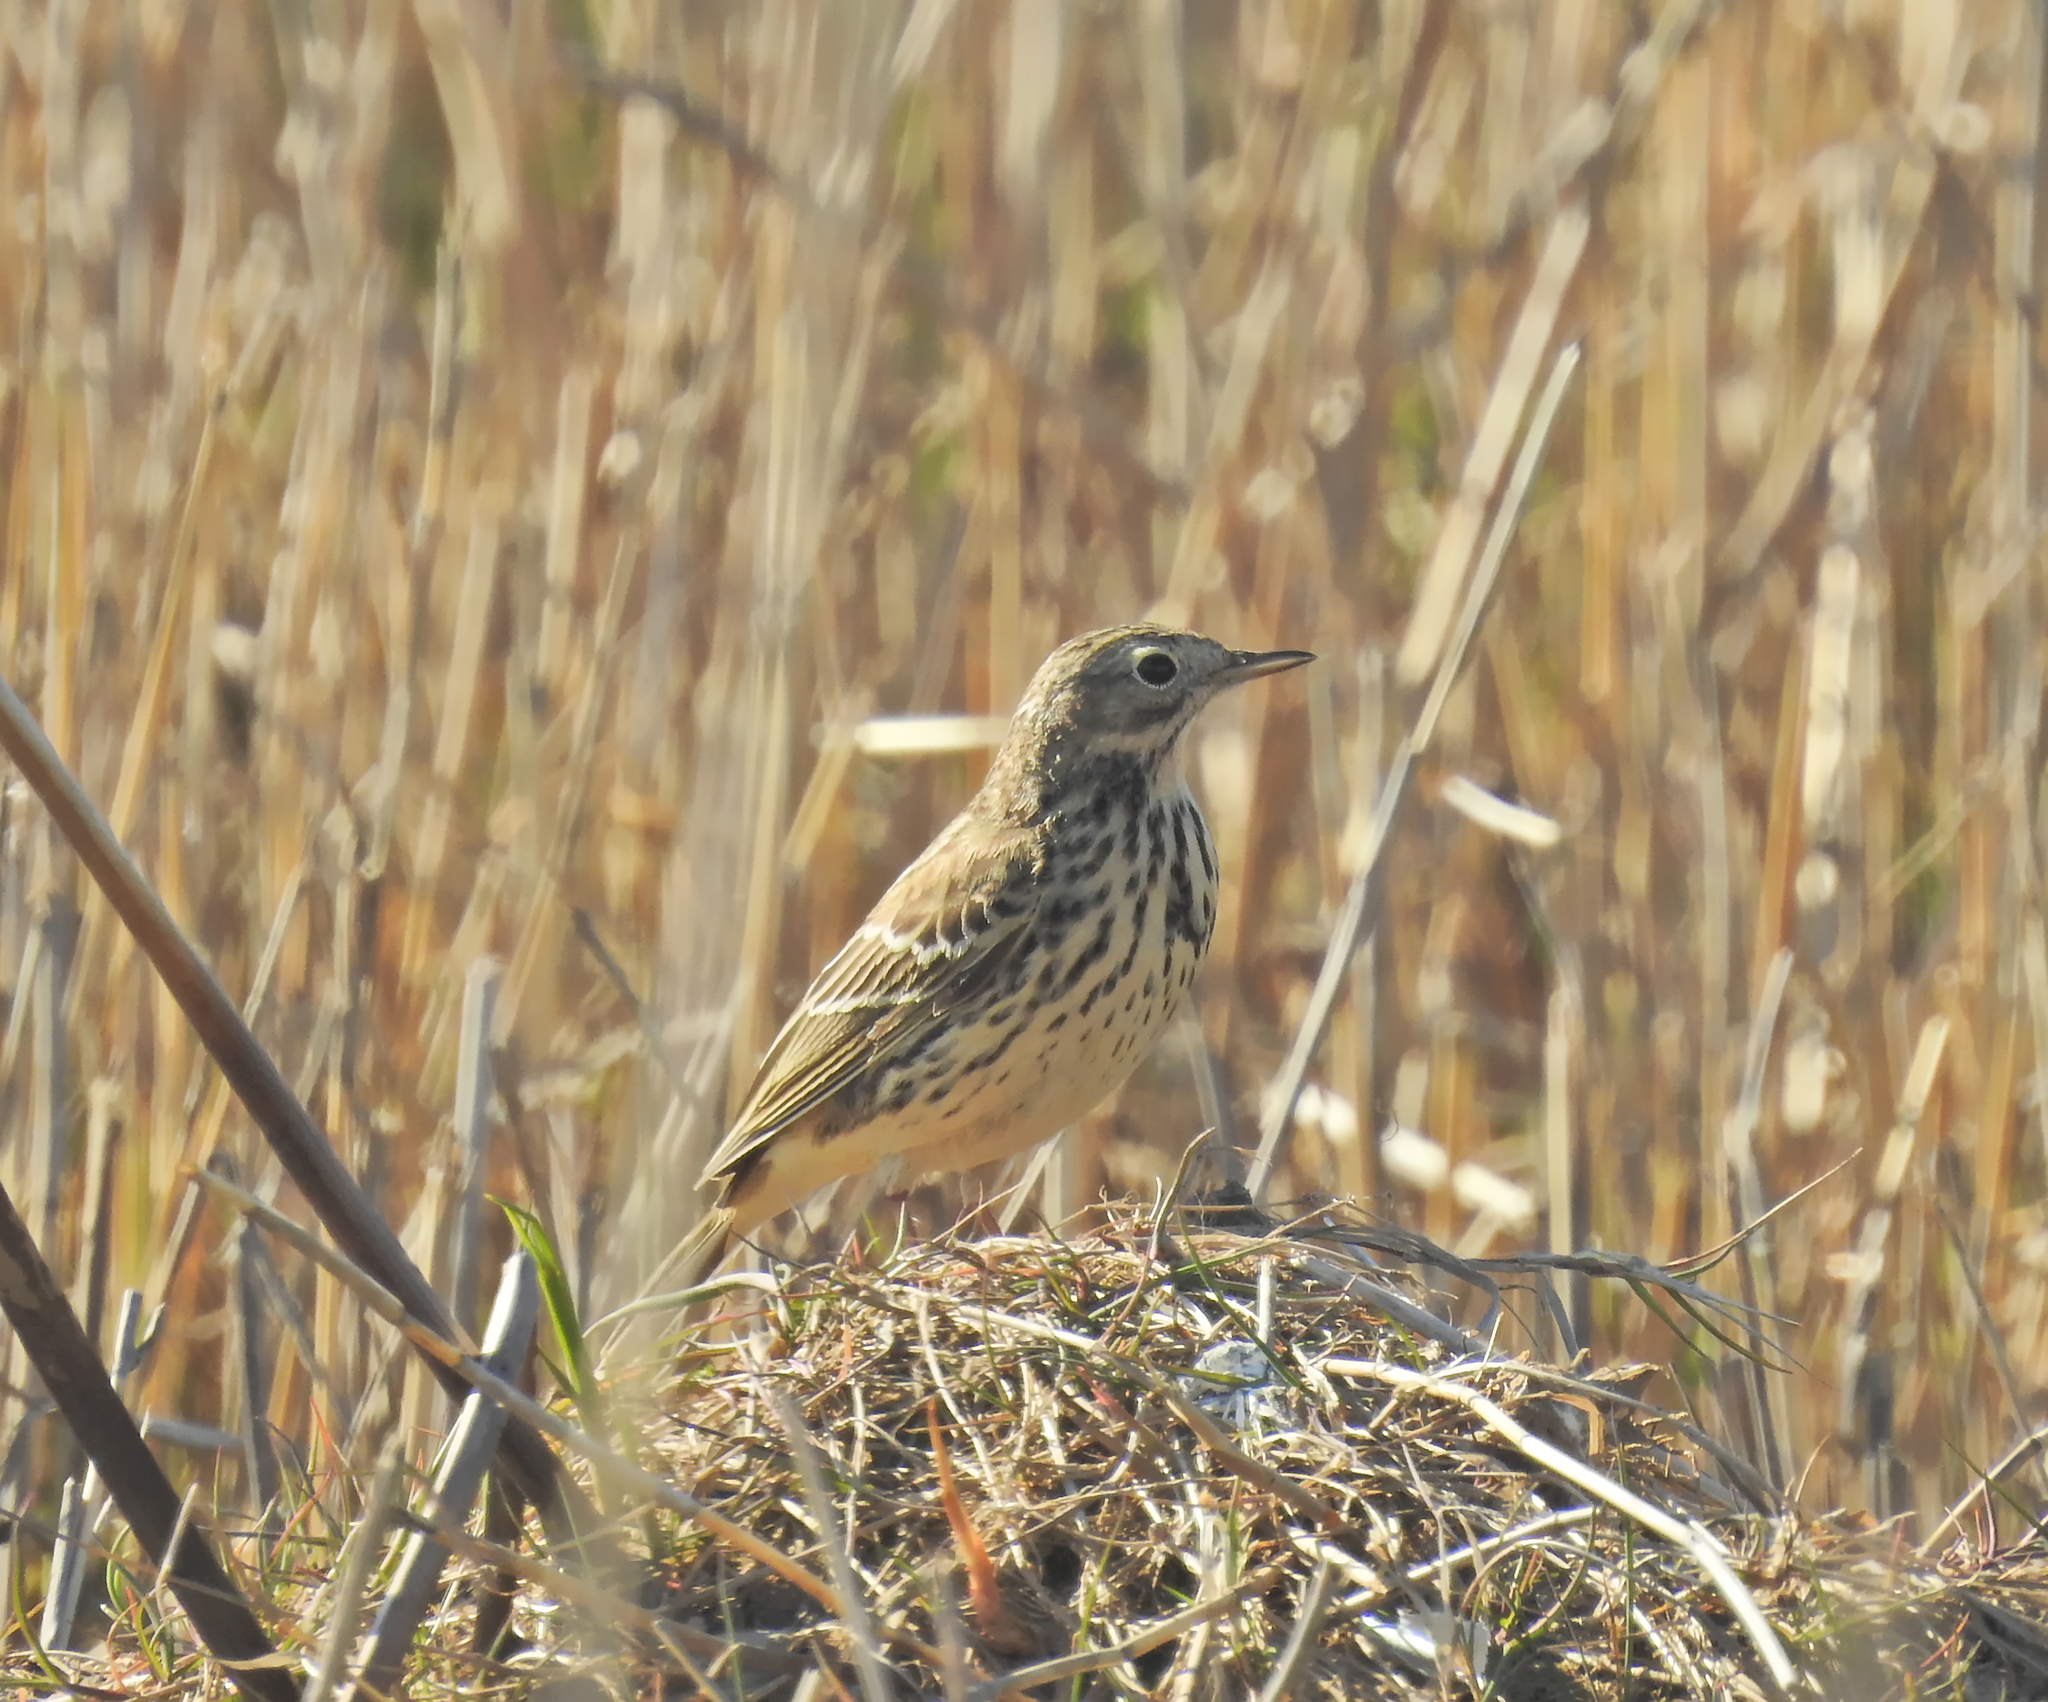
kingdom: Animalia
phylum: Chordata
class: Aves
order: Passeriformes
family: Motacillidae
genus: Anthus
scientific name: Anthus pratensis
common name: Meadow pipit
